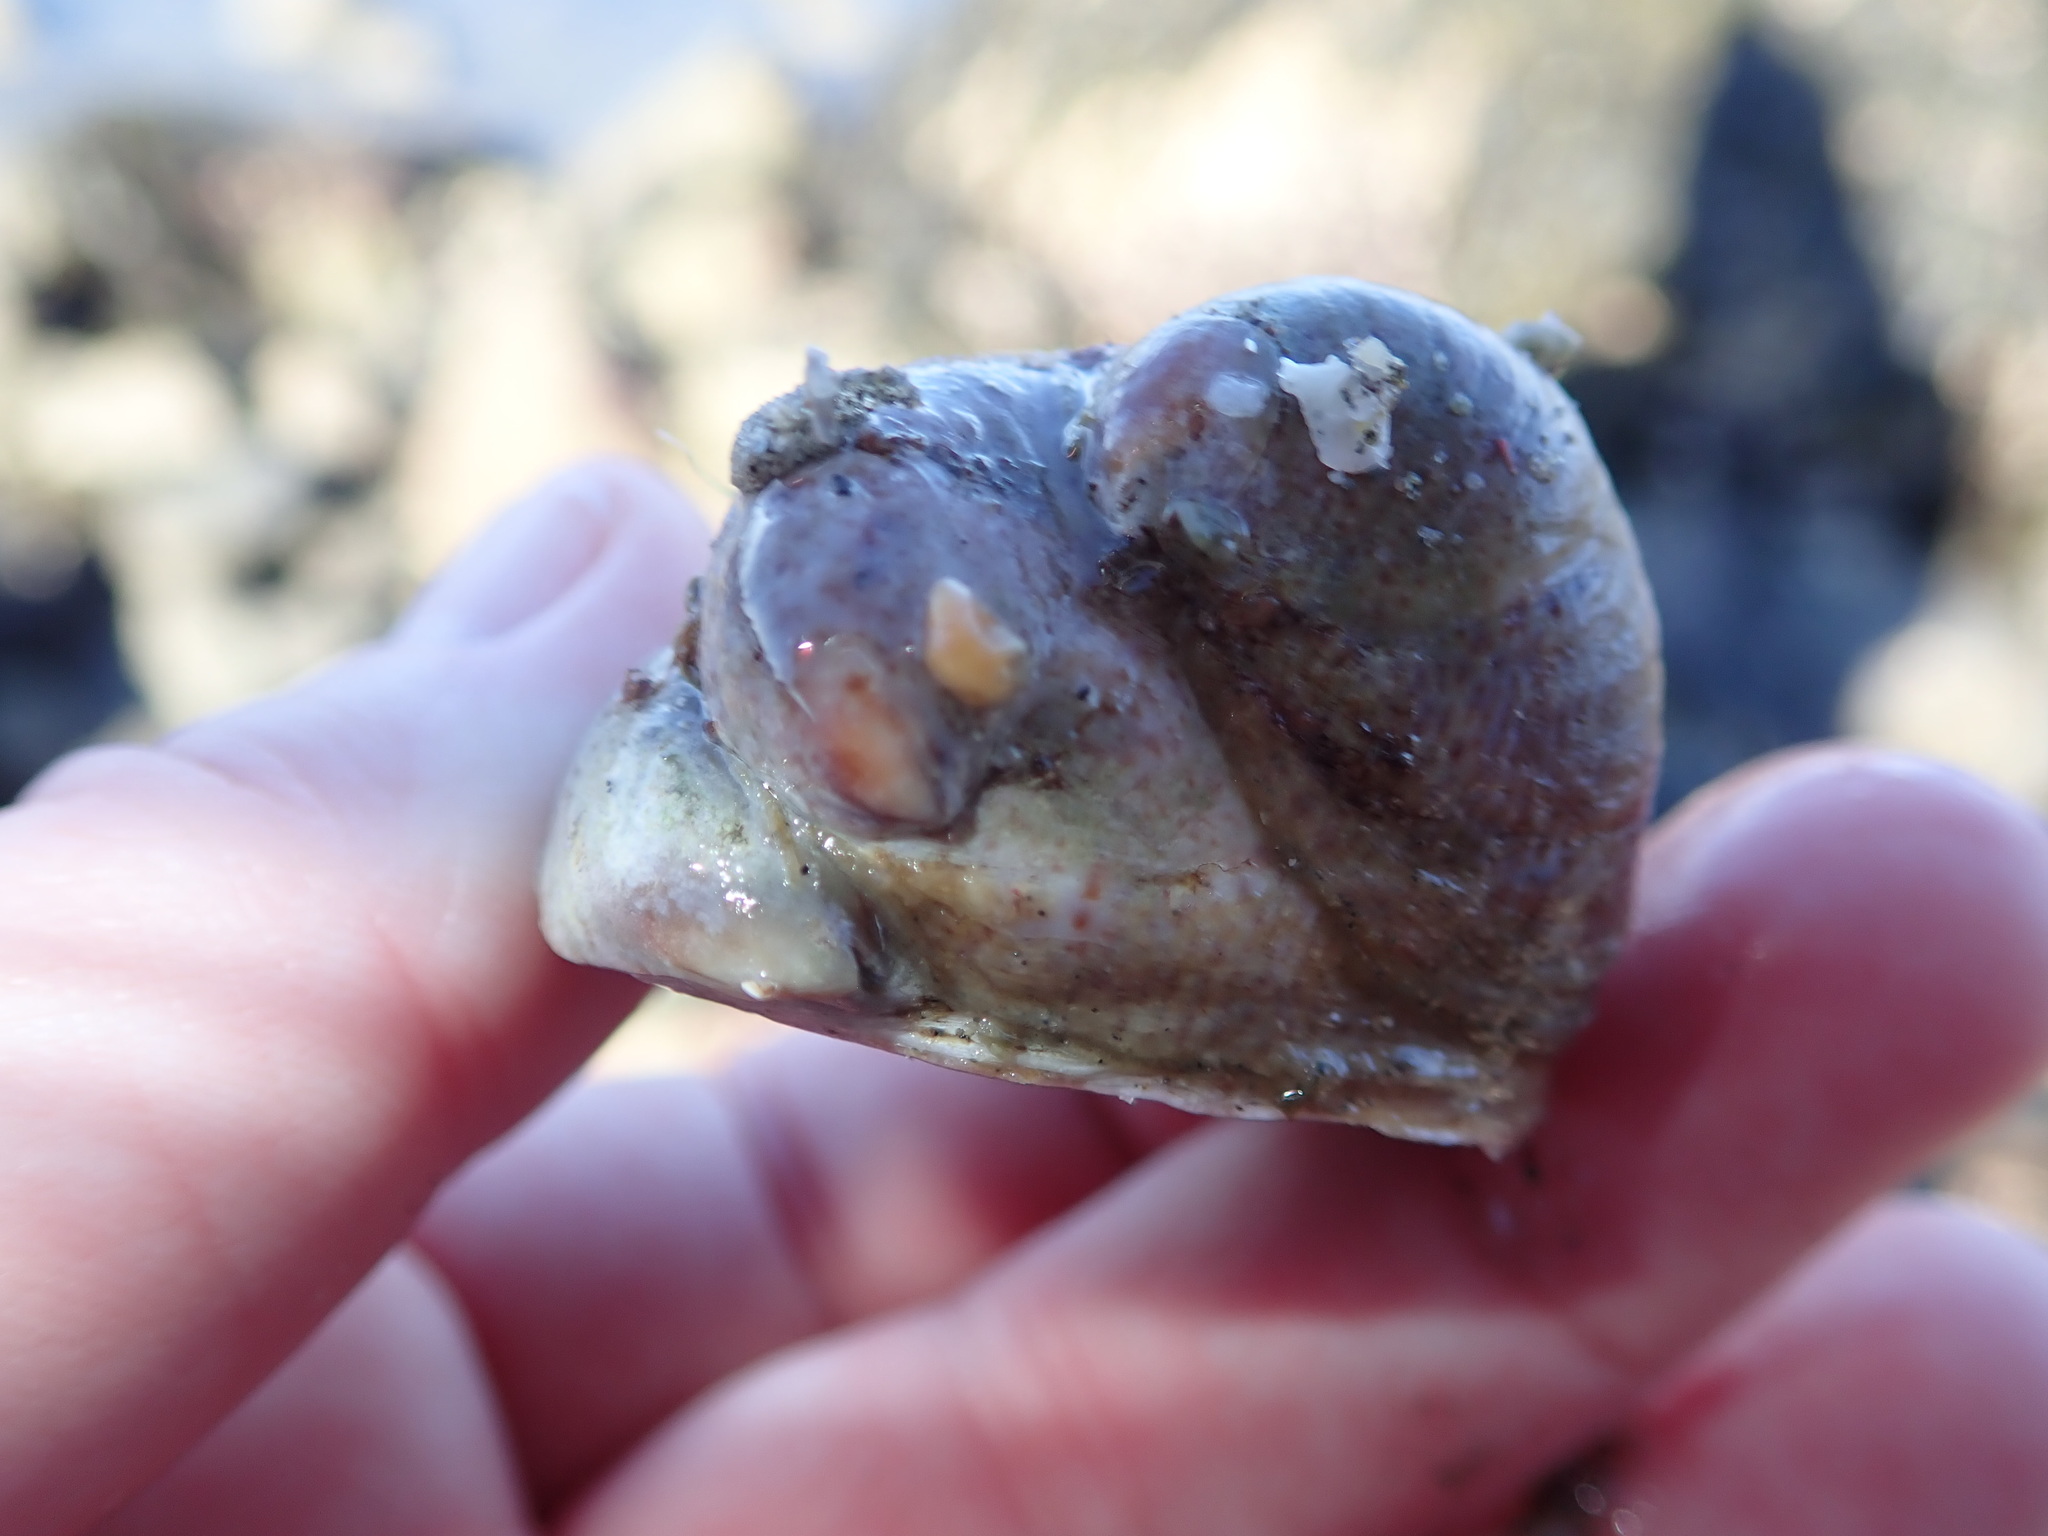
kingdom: Animalia
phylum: Mollusca
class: Gastropoda
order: Littorinimorpha
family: Calyptraeidae
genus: Crepidula
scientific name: Crepidula fornicata
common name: Slipper limpet
